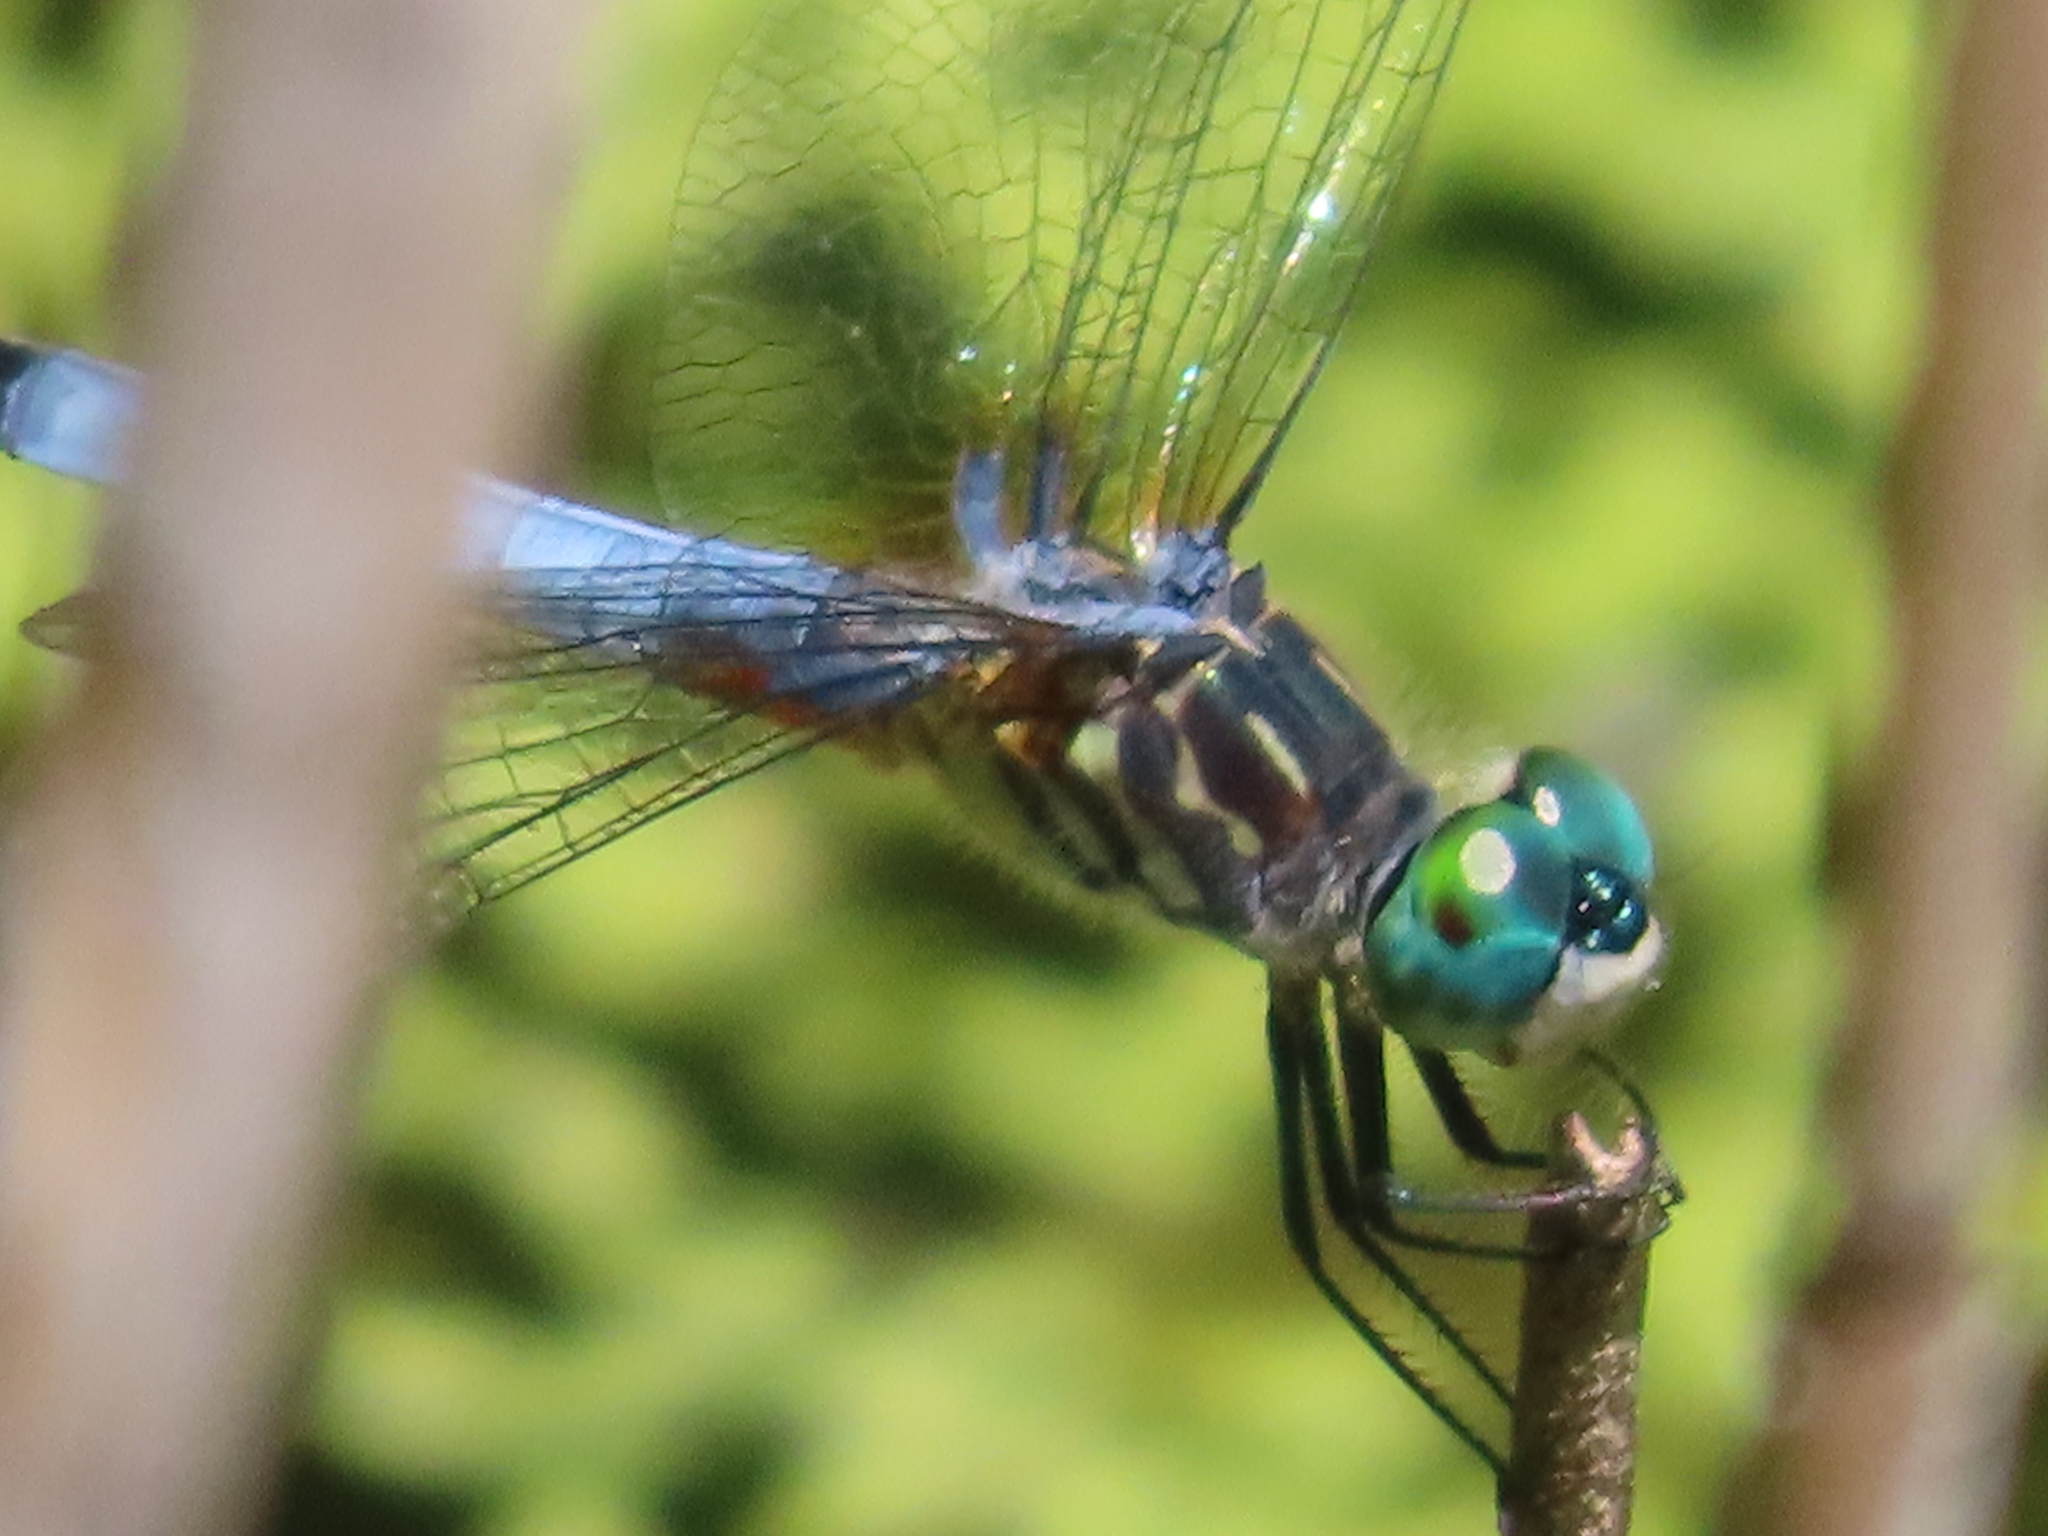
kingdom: Animalia
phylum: Arthropoda
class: Insecta
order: Odonata
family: Libellulidae
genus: Pachydiplax
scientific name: Pachydiplax longipennis
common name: Blue dasher
